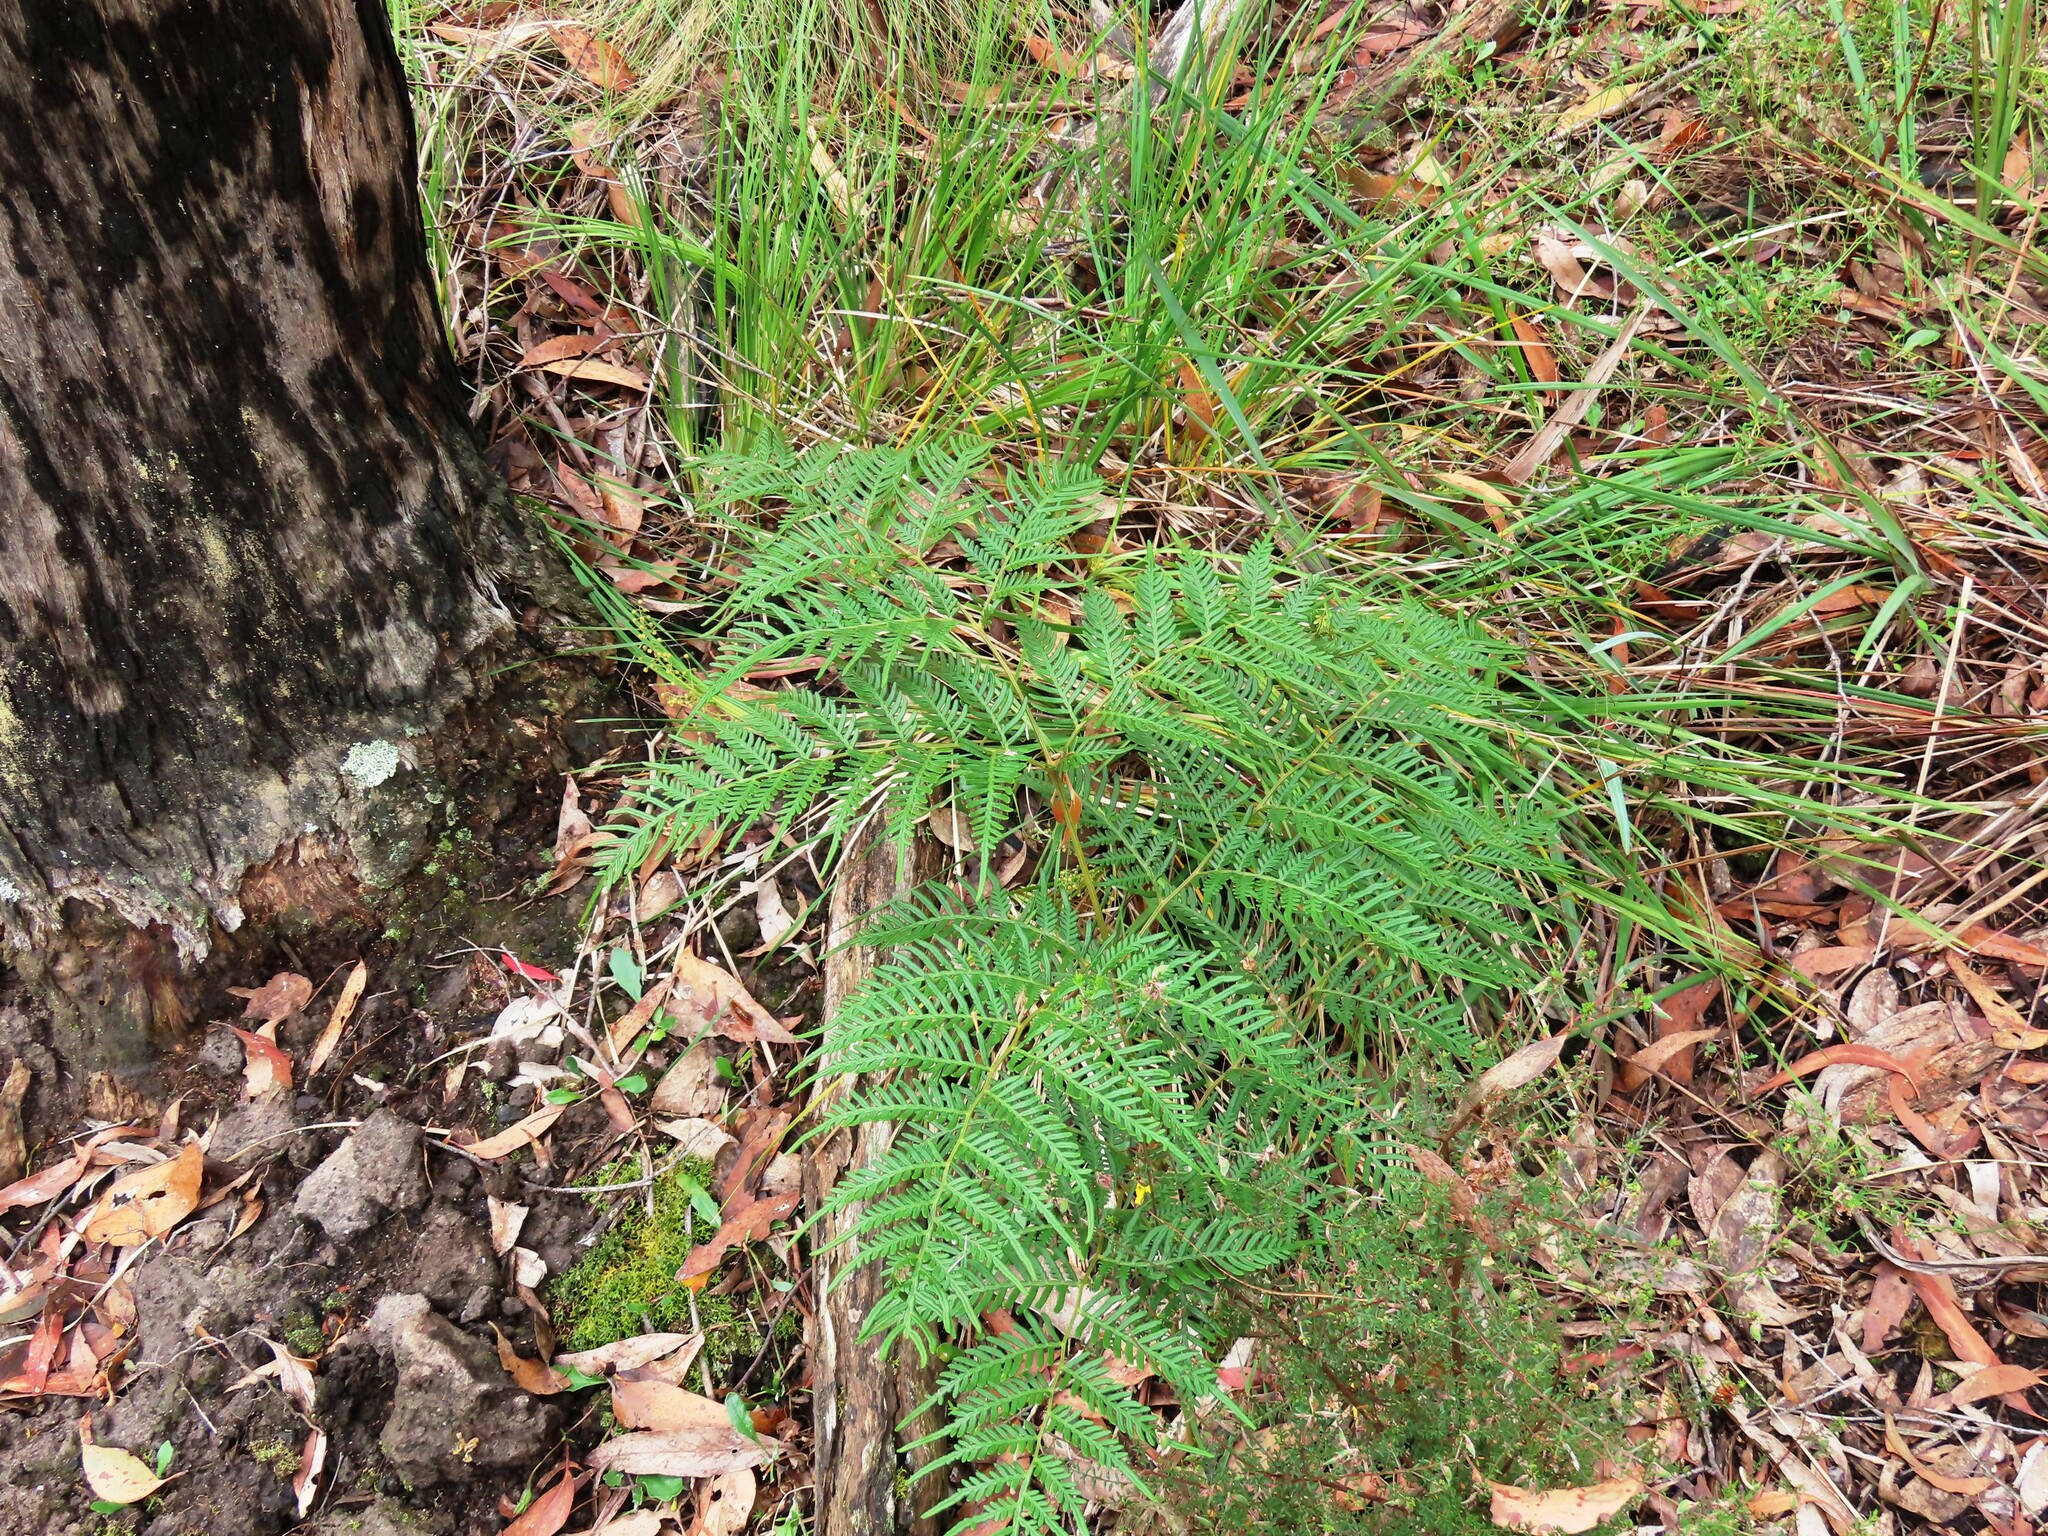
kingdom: Plantae
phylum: Tracheophyta
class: Polypodiopsida
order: Polypodiales
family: Dennstaedtiaceae
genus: Pteridium
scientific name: Pteridium esculentum
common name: Bracken fern
